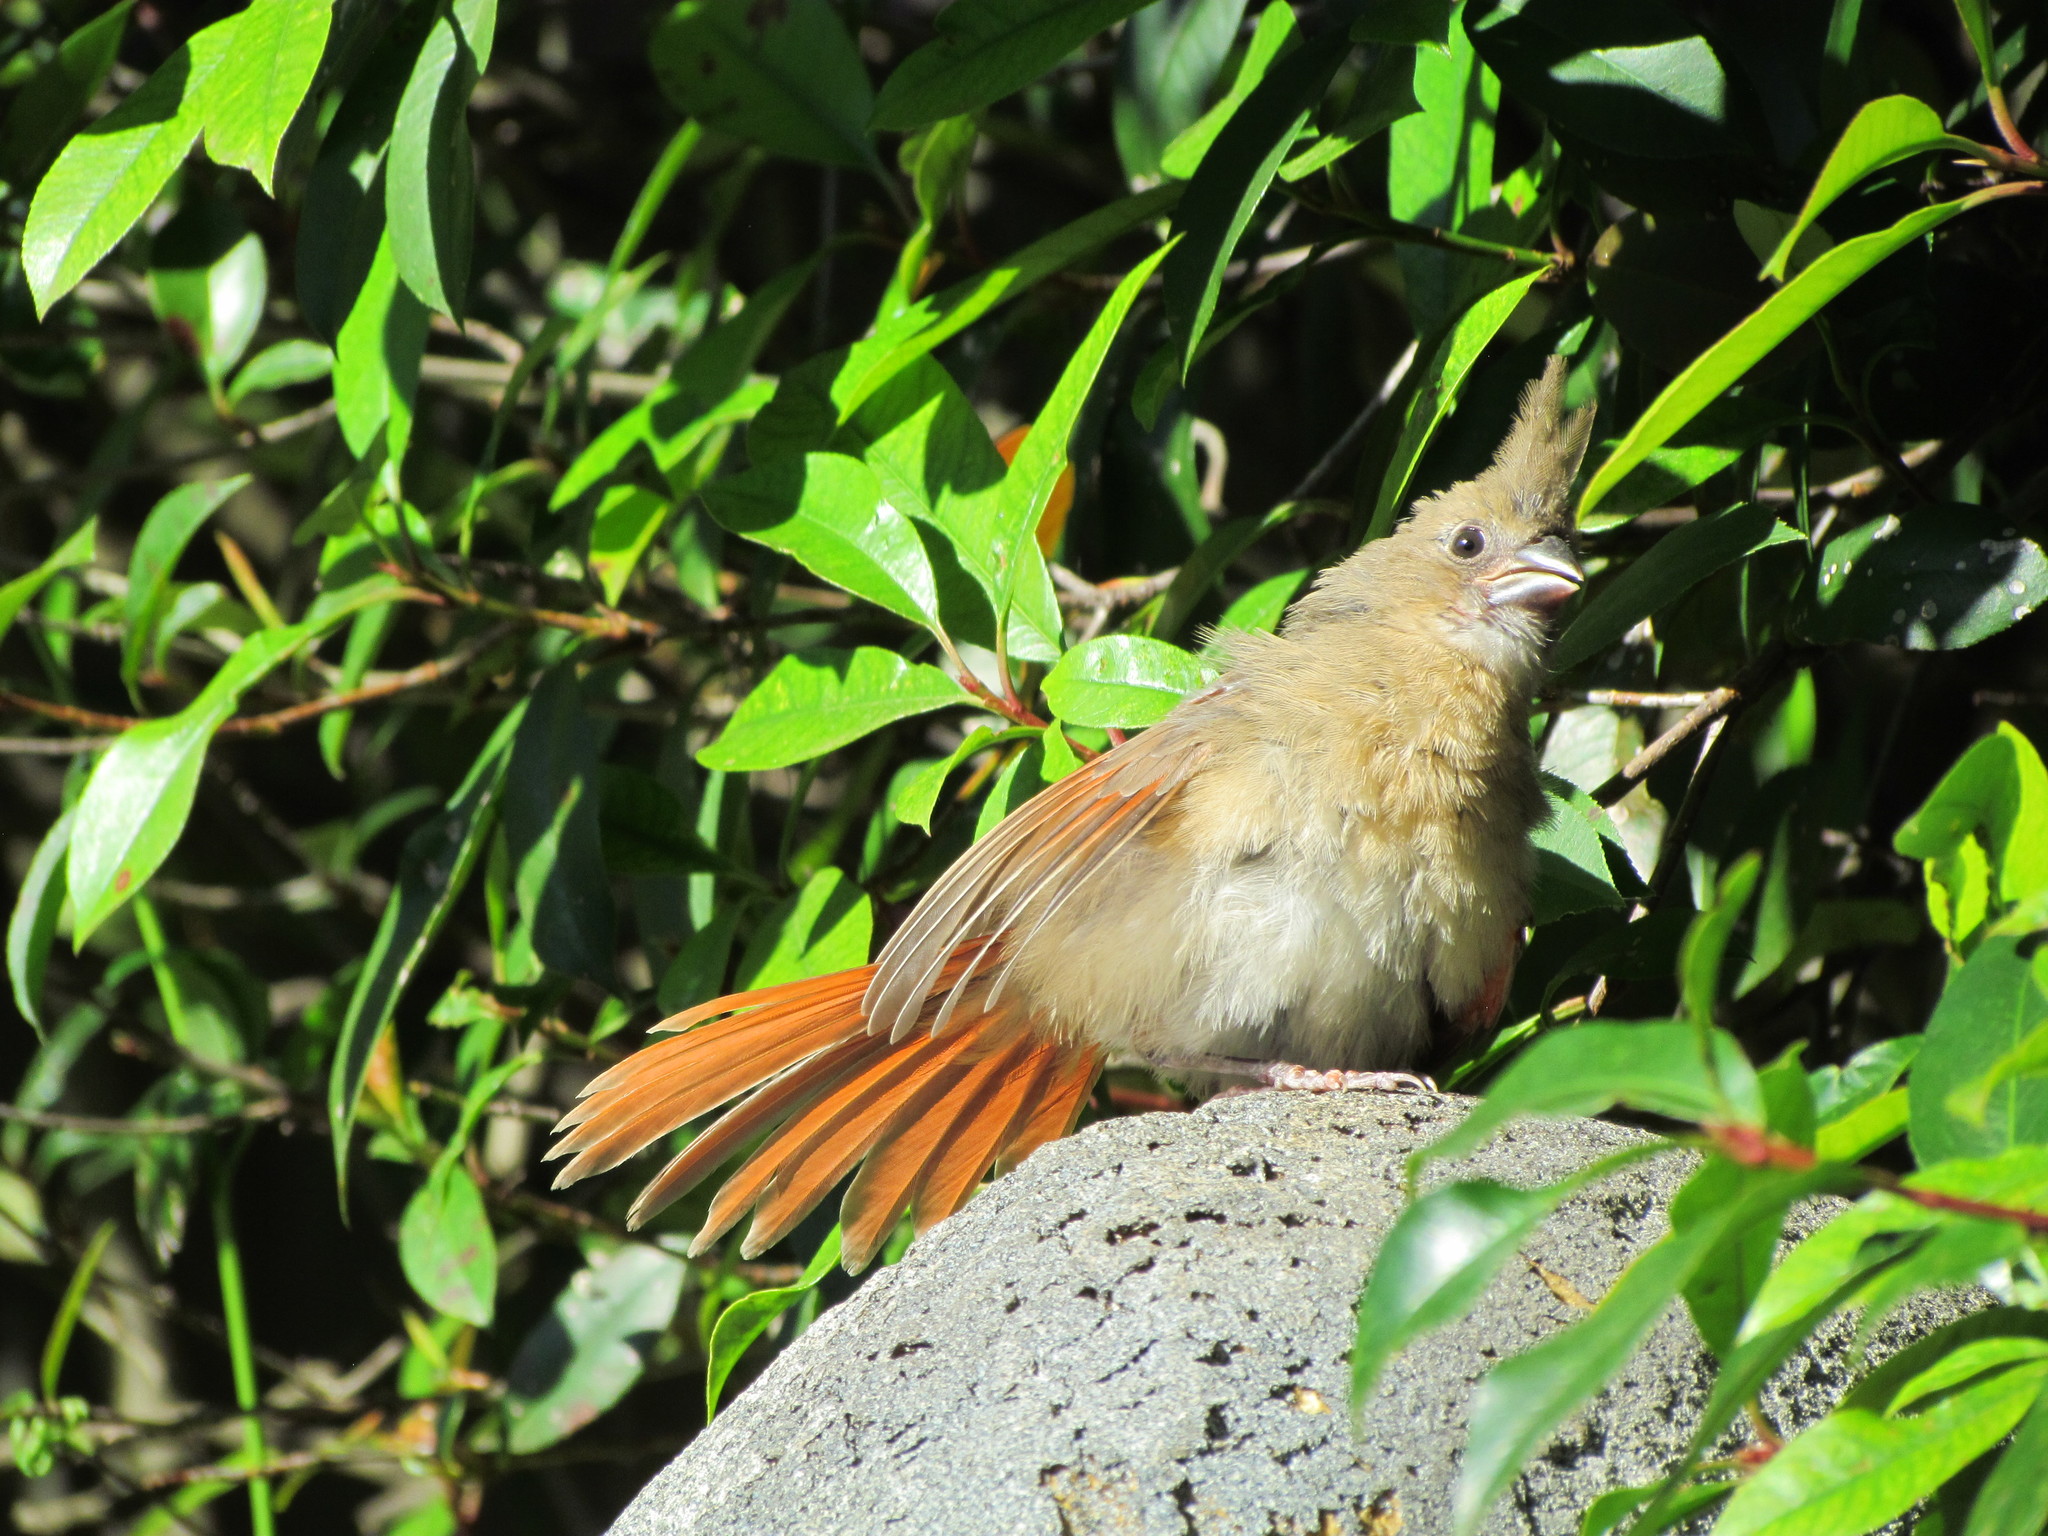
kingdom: Animalia
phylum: Chordata
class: Aves
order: Passeriformes
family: Cardinalidae
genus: Cardinalis
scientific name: Cardinalis cardinalis
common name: Northern cardinal
